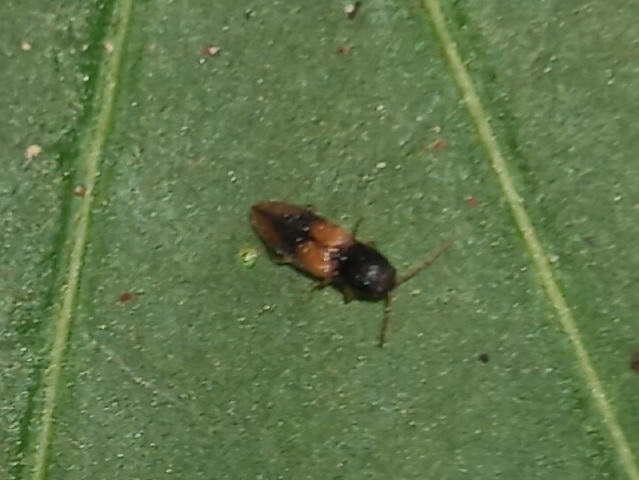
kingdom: Animalia
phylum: Arthropoda
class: Insecta
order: Coleoptera
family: Elateridae
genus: Horistonotus
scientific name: Horistonotus curiatus
